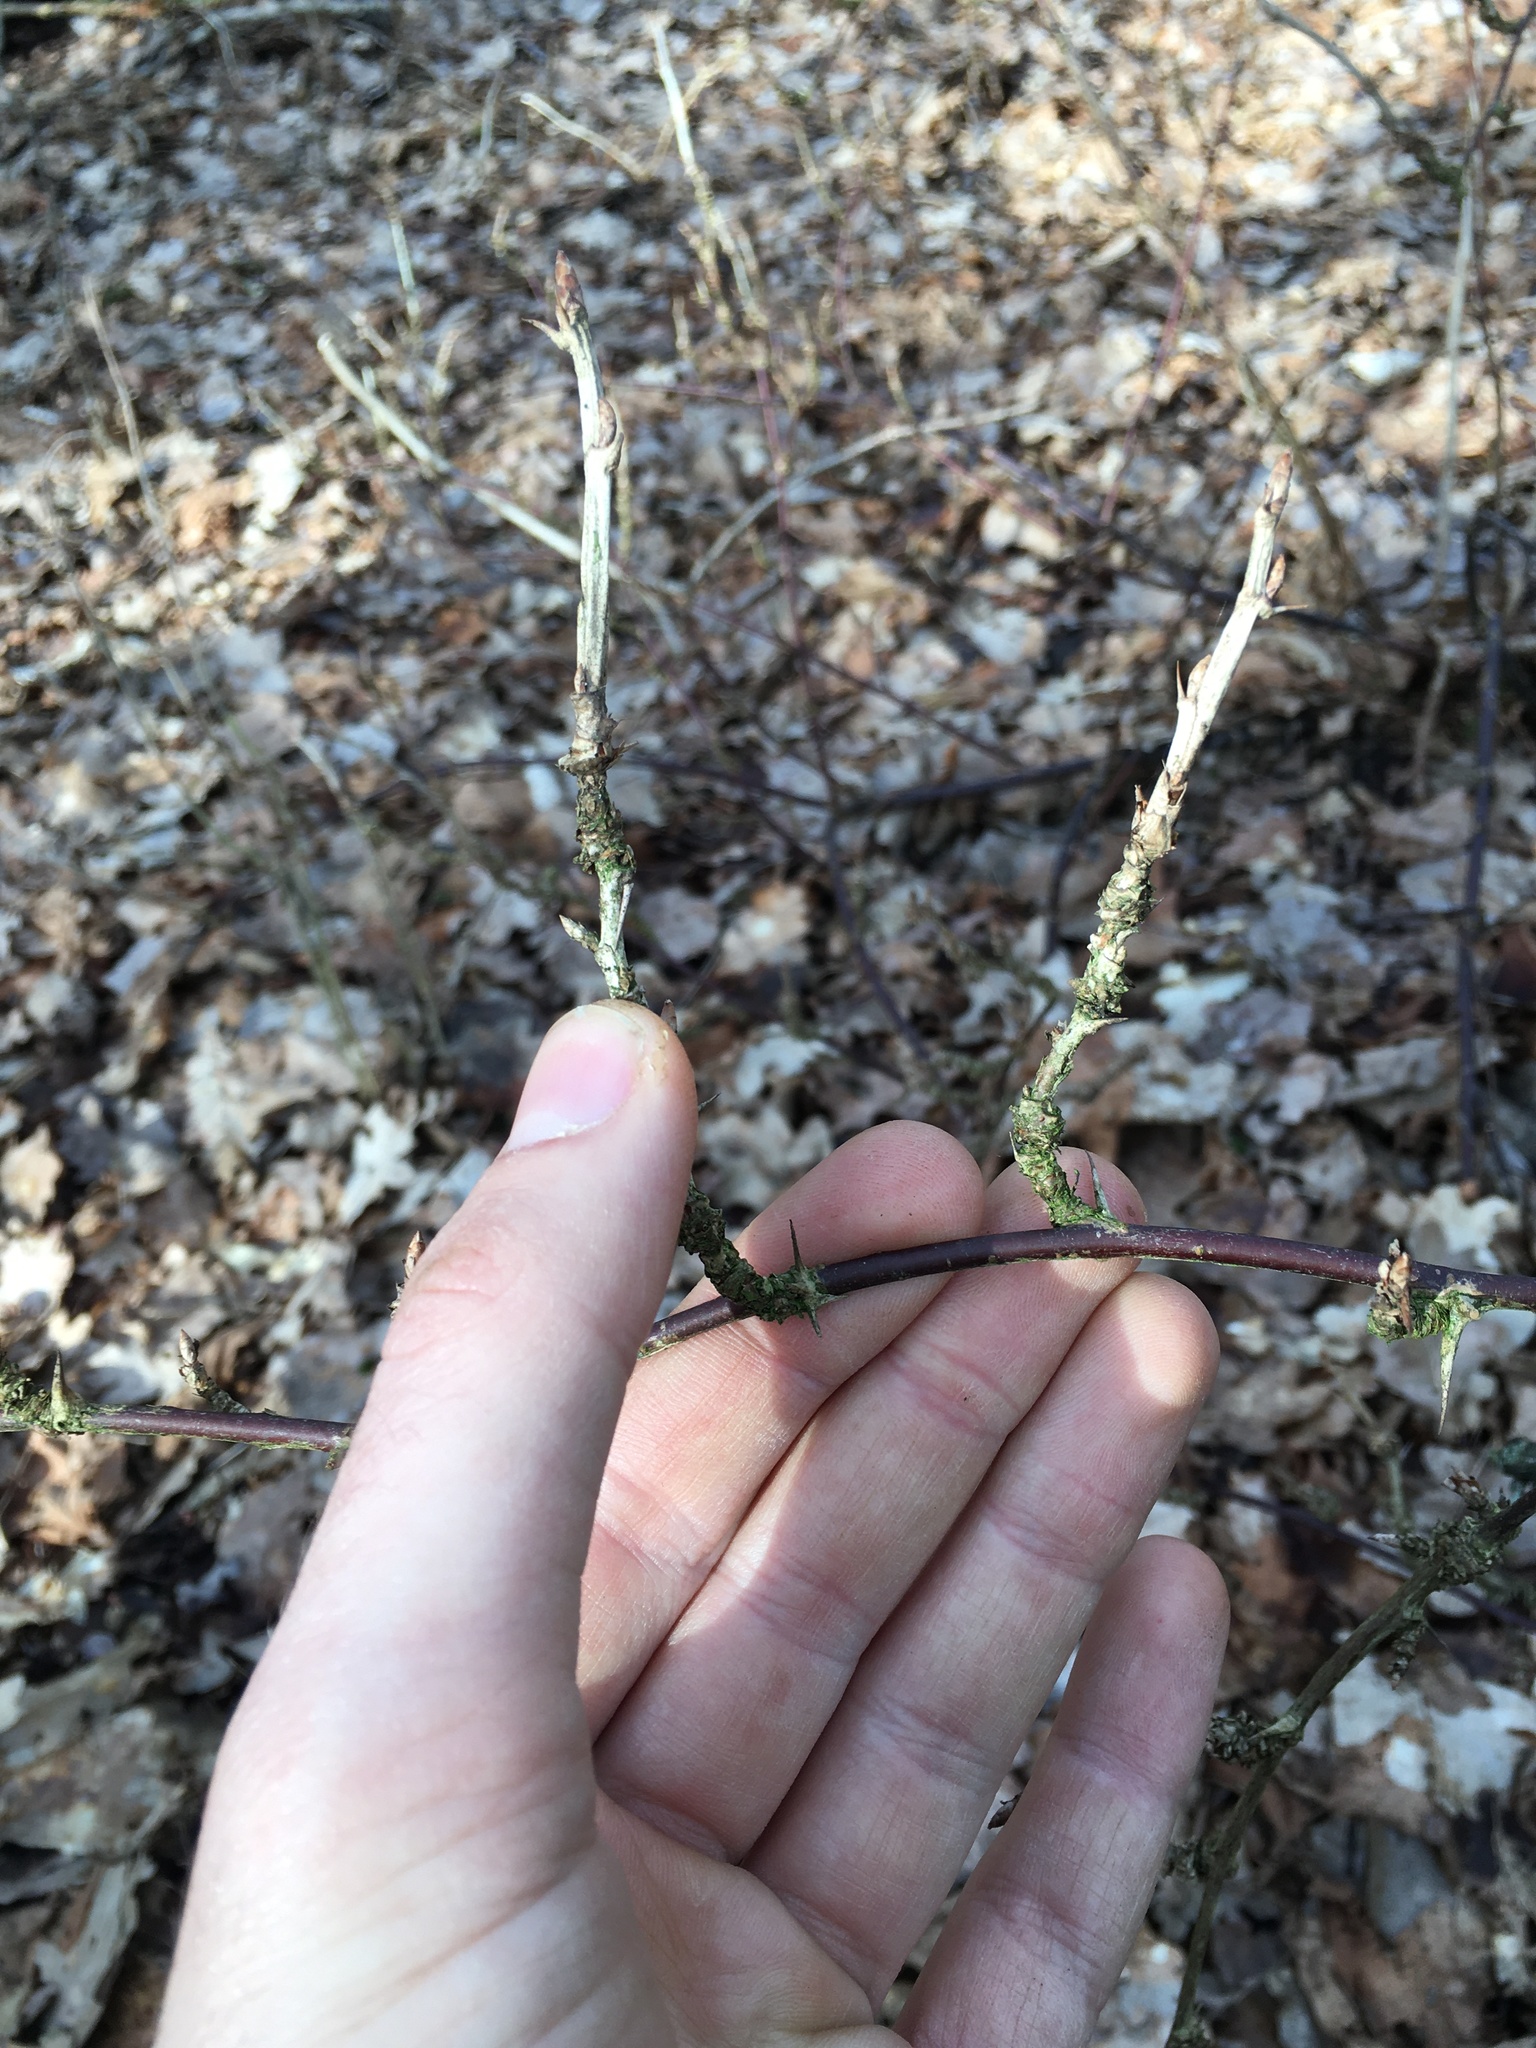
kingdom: Plantae
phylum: Tracheophyta
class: Magnoliopsida
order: Saxifragales
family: Grossulariaceae
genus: Ribes
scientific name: Ribes uva-crispa
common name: Gooseberry
